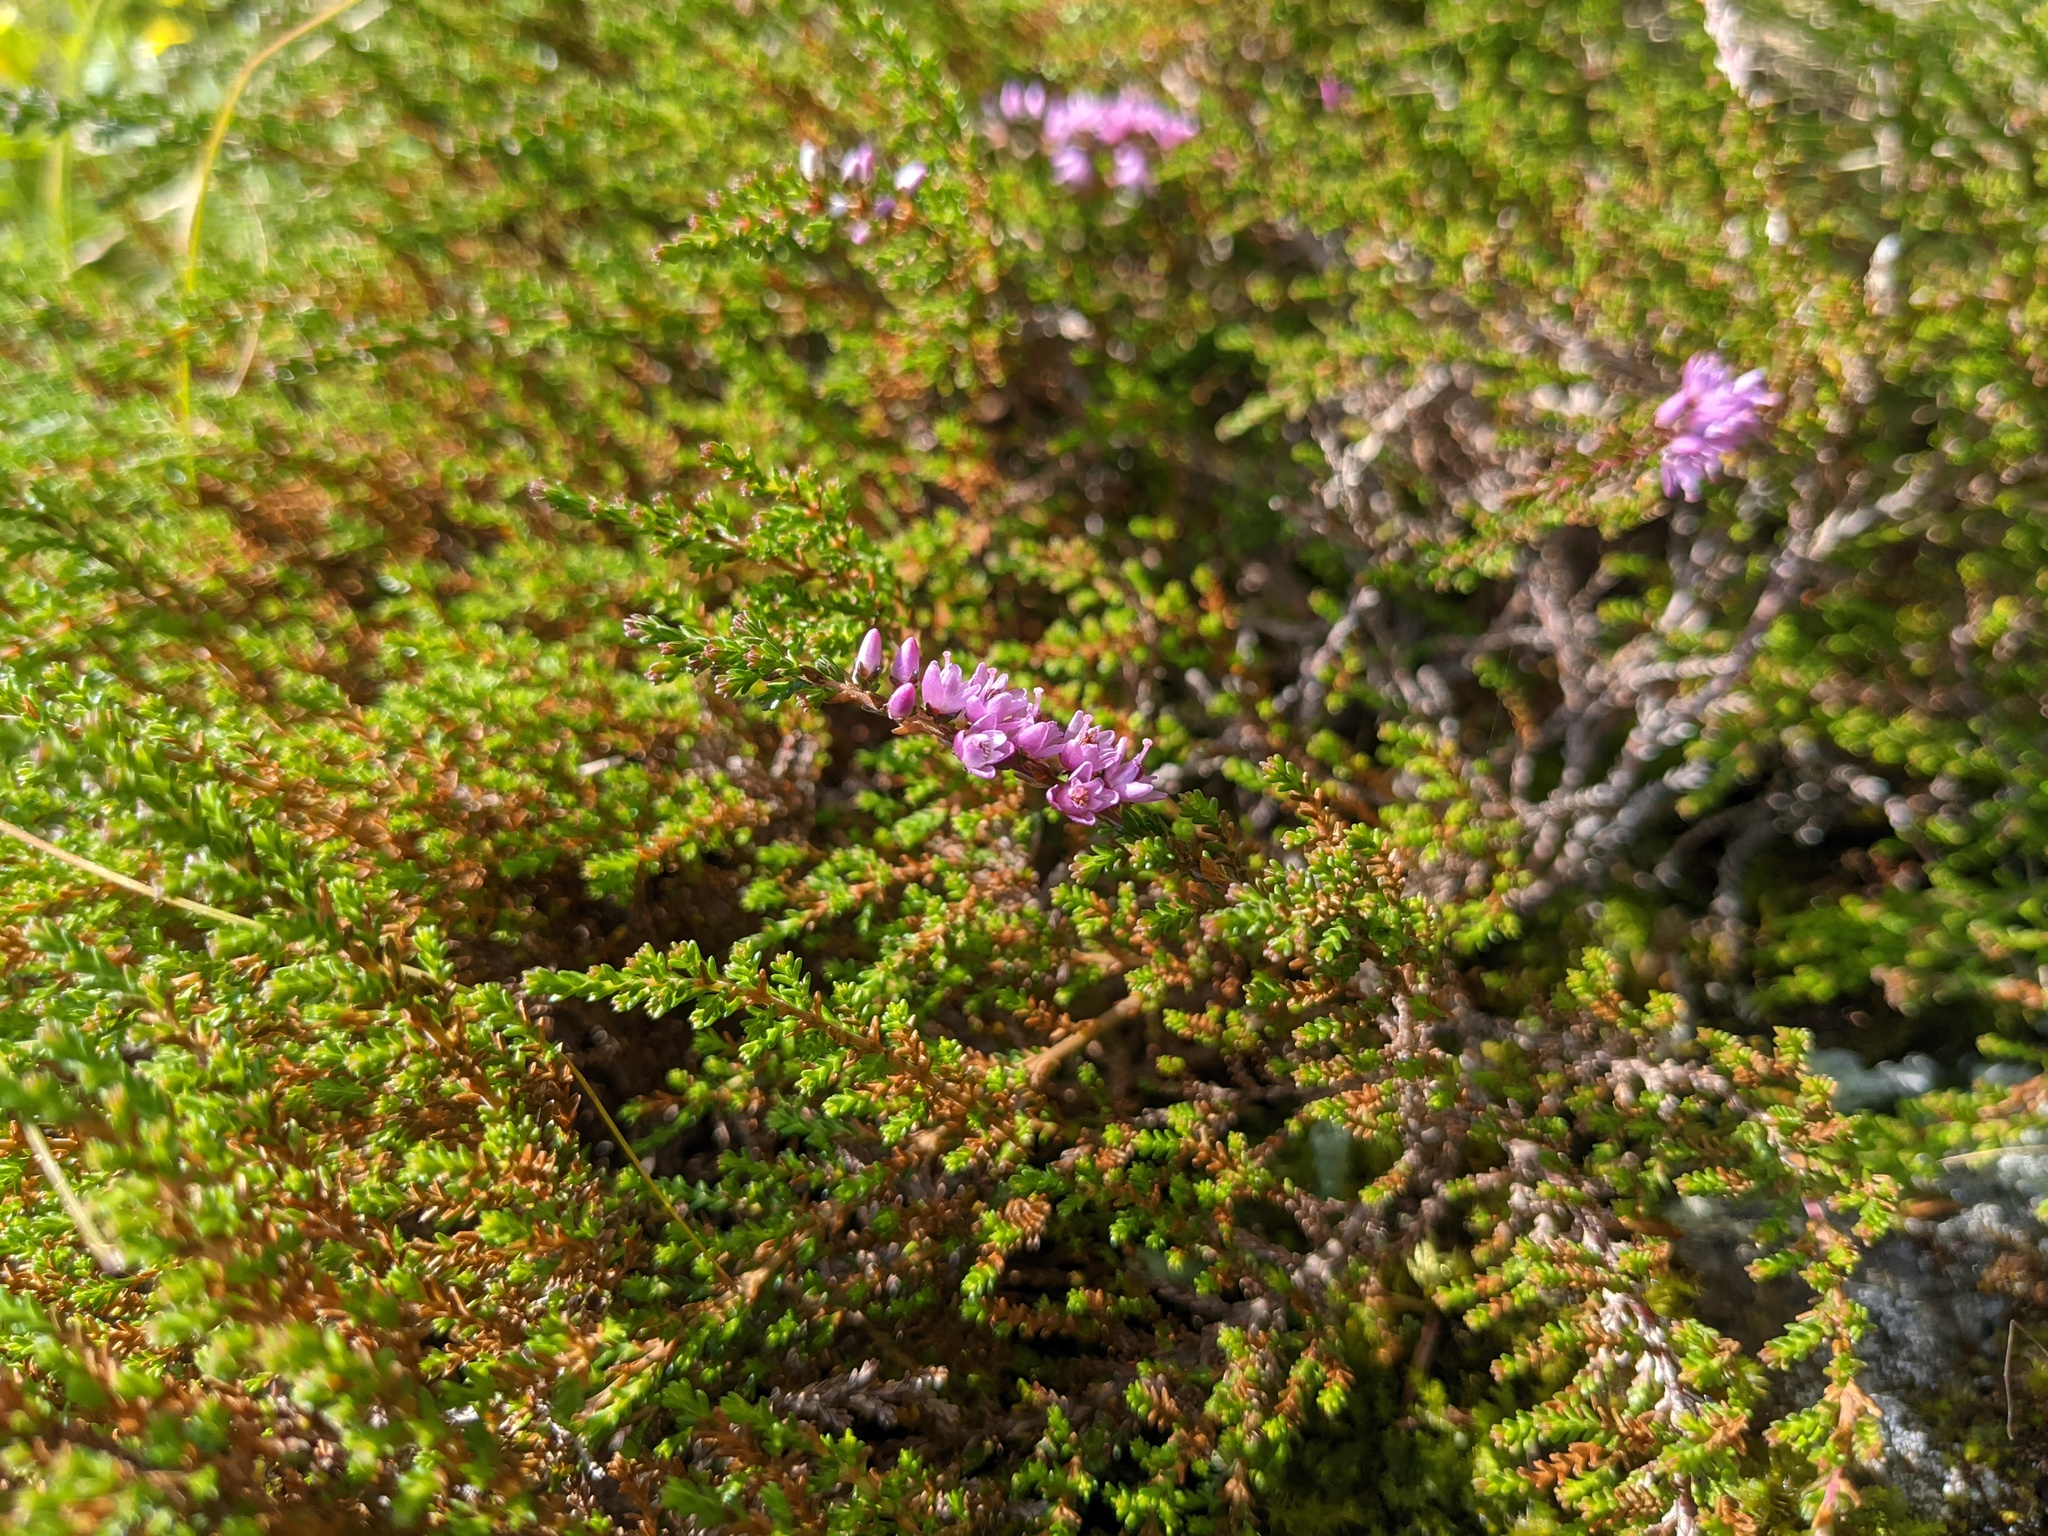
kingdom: Plantae
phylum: Tracheophyta
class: Magnoliopsida
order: Ericales
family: Ericaceae
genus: Calluna
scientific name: Calluna vulgaris
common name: Heather
